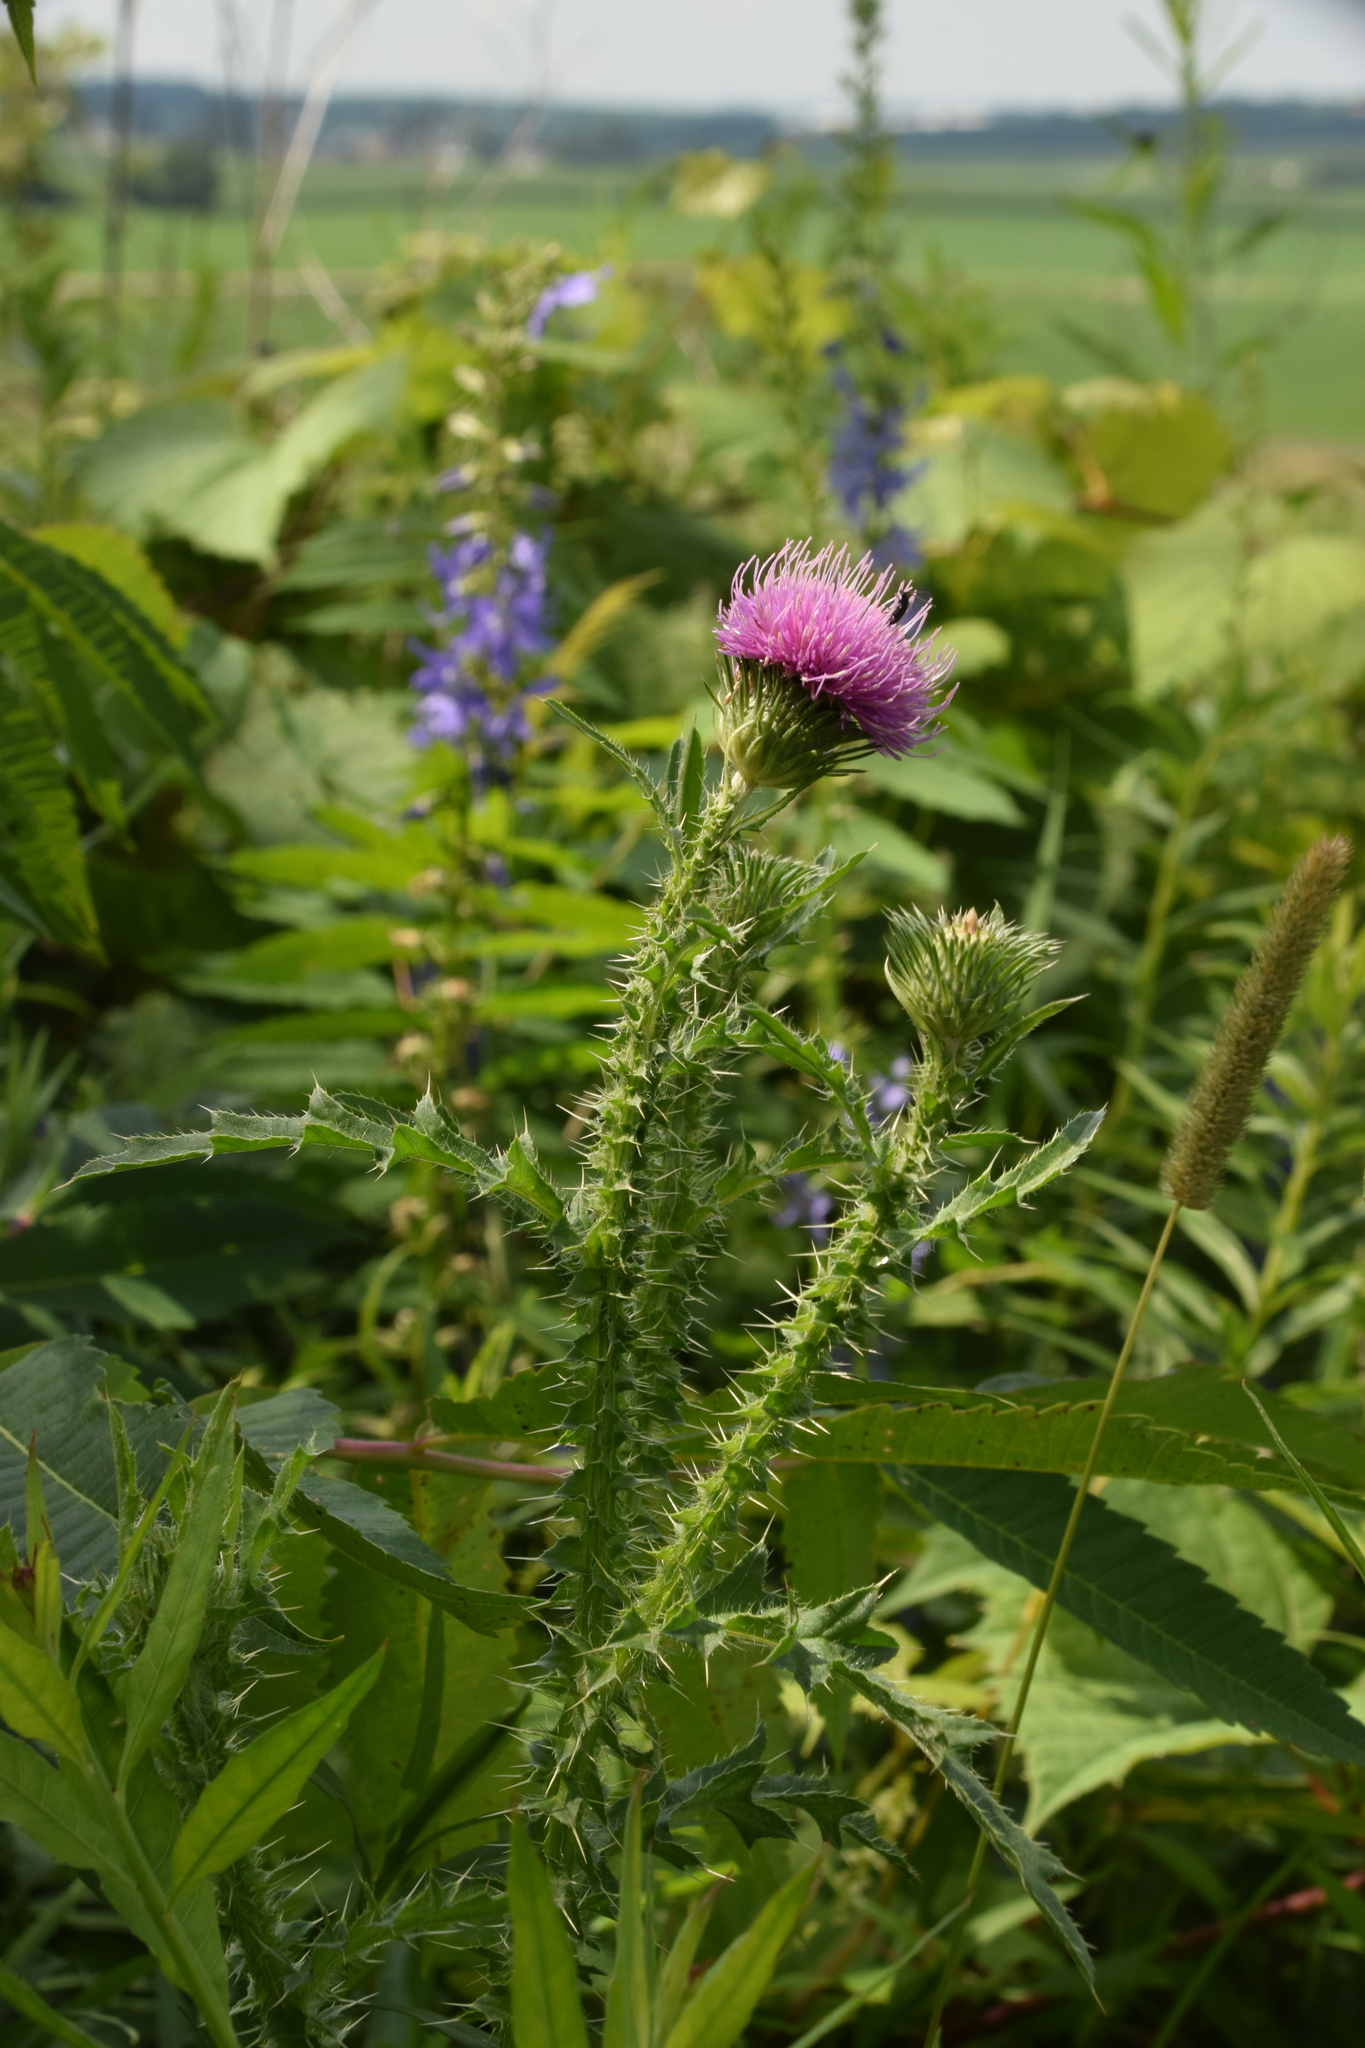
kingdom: Plantae
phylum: Tracheophyta
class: Magnoliopsida
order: Asterales
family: Asteraceae
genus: Carduus
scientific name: Carduus acanthoides
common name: Plumeless thistle
